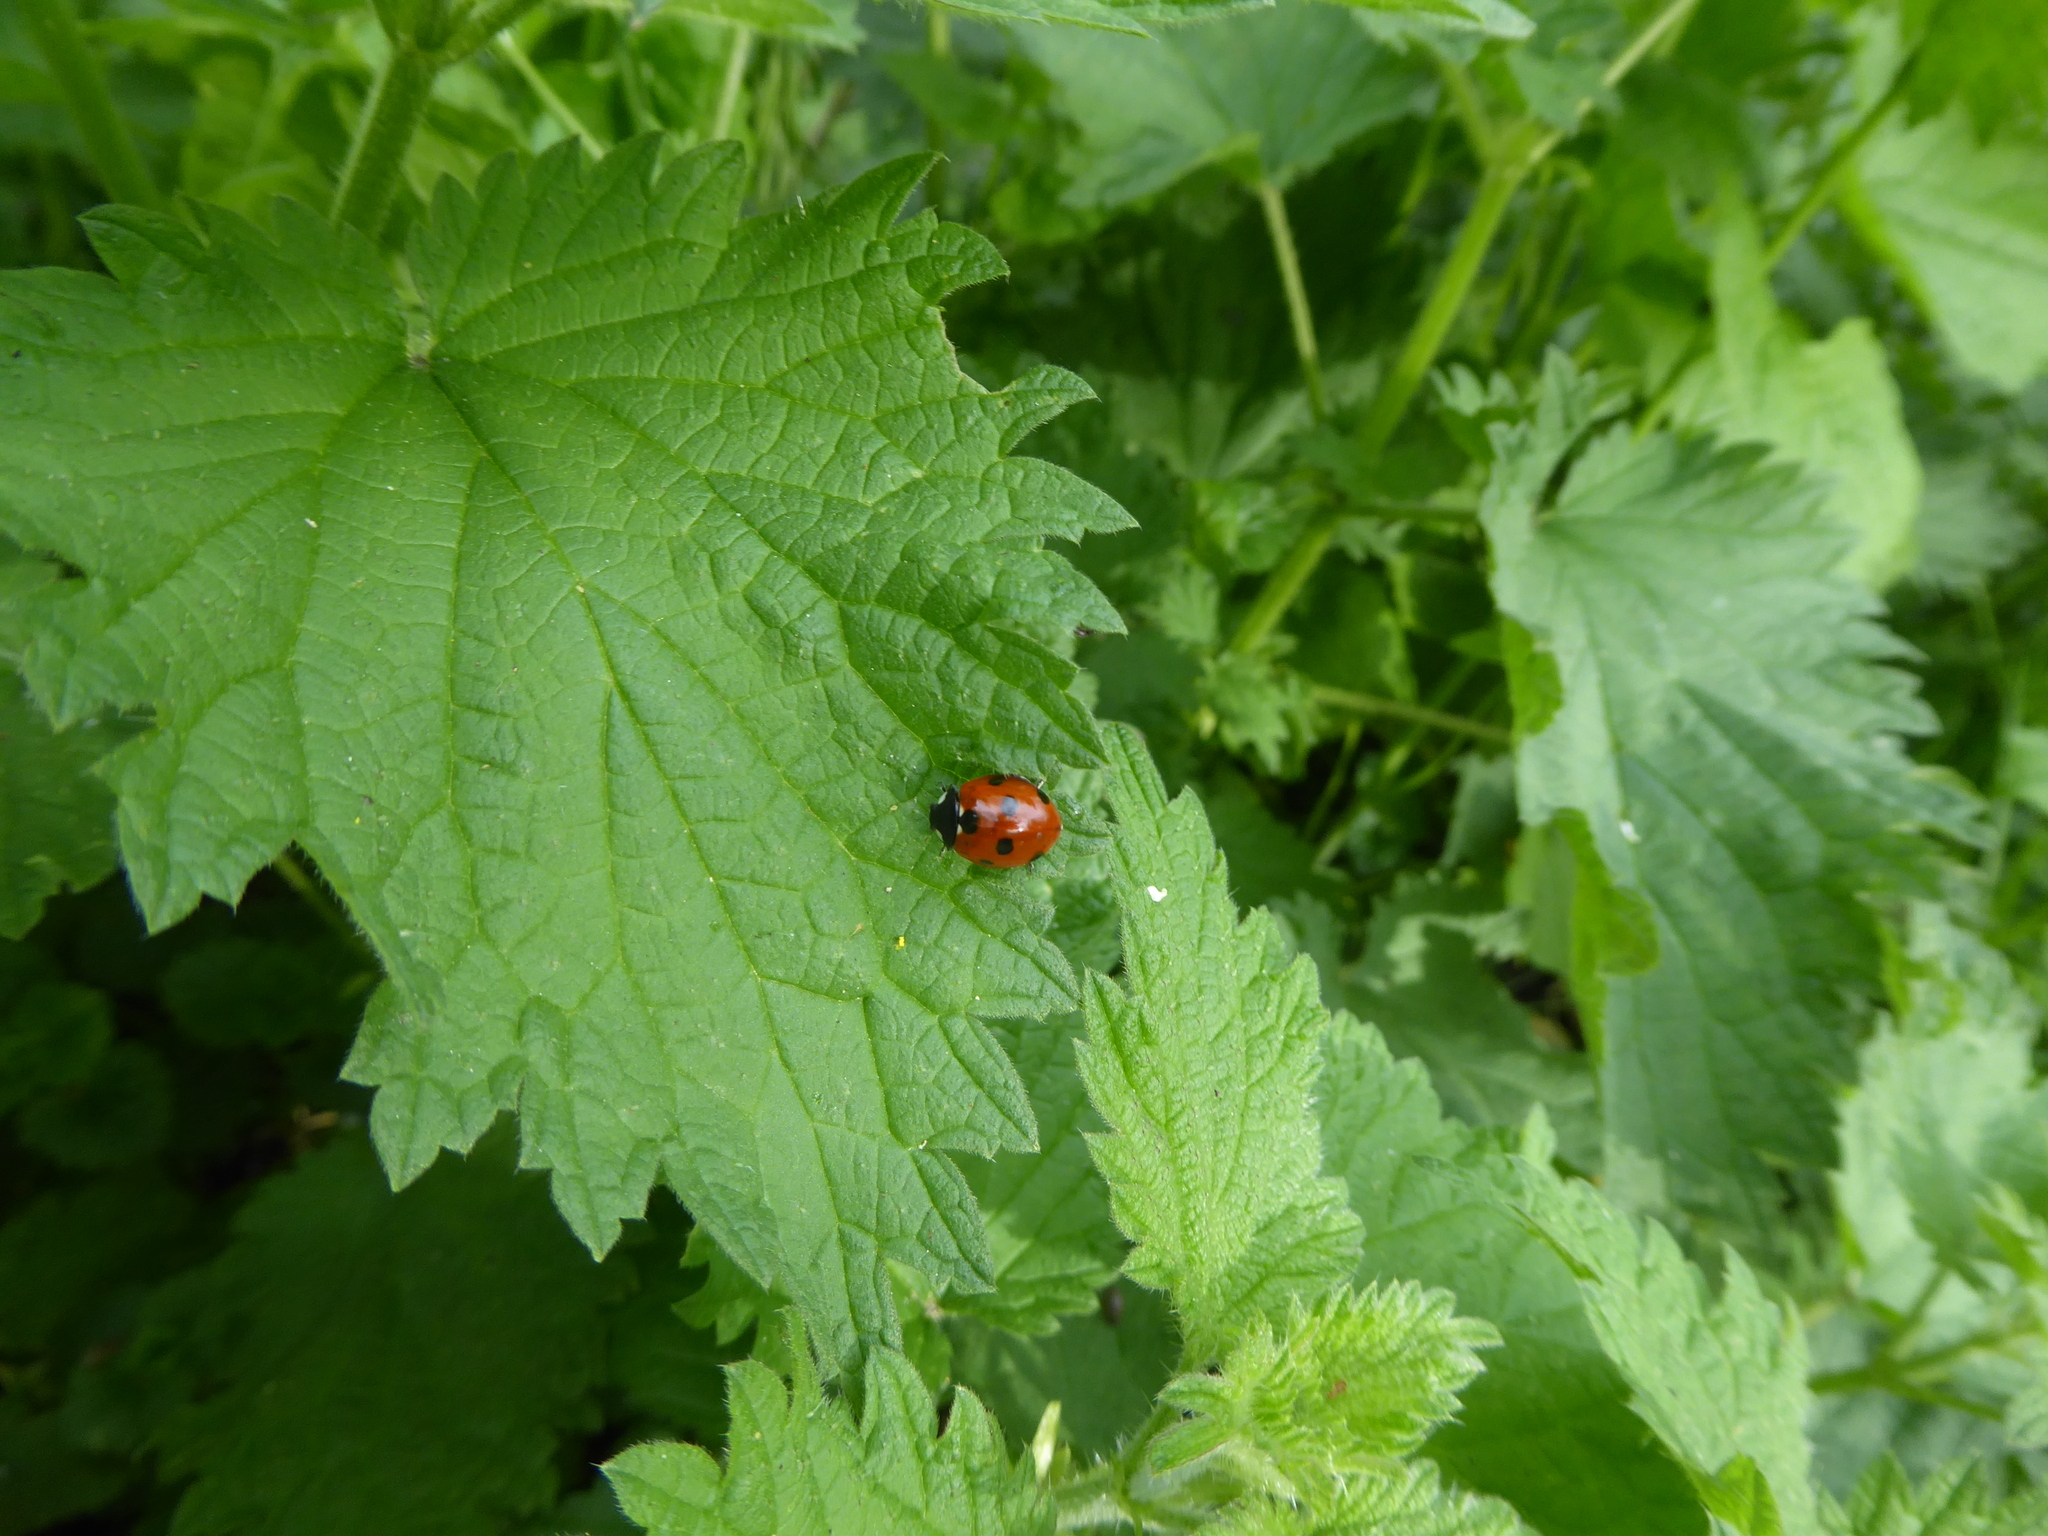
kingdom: Animalia
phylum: Arthropoda
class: Insecta
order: Coleoptera
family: Coccinellidae
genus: Coccinella
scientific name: Coccinella septempunctata
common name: Sevenspotted lady beetle
